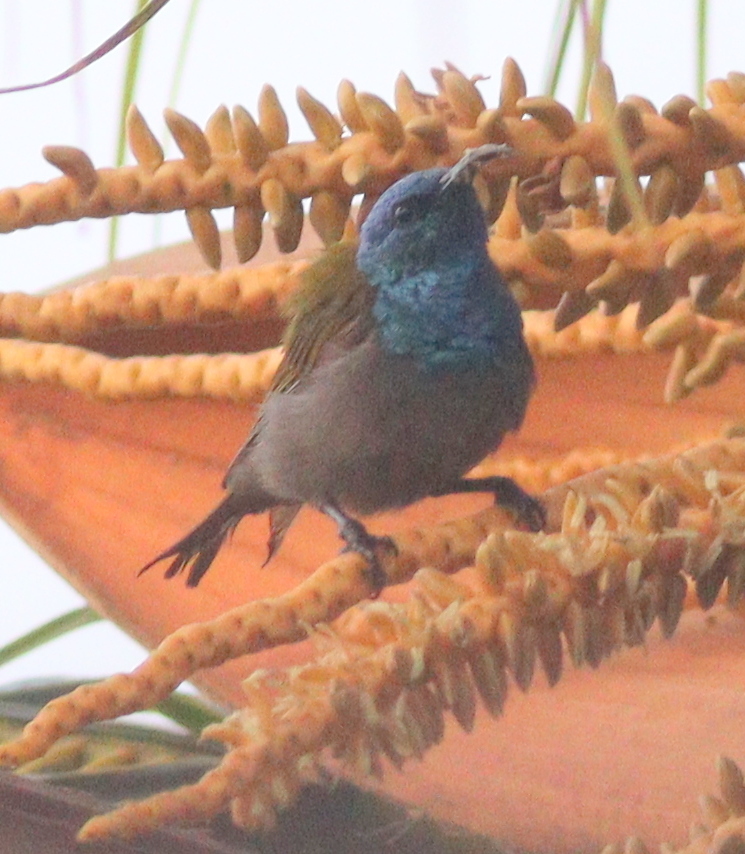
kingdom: Animalia
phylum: Chordata
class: Aves
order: Passeriformes
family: Nectariniidae
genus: Cyanomitra
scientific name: Cyanomitra verticalis
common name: Green-headed sunbird
